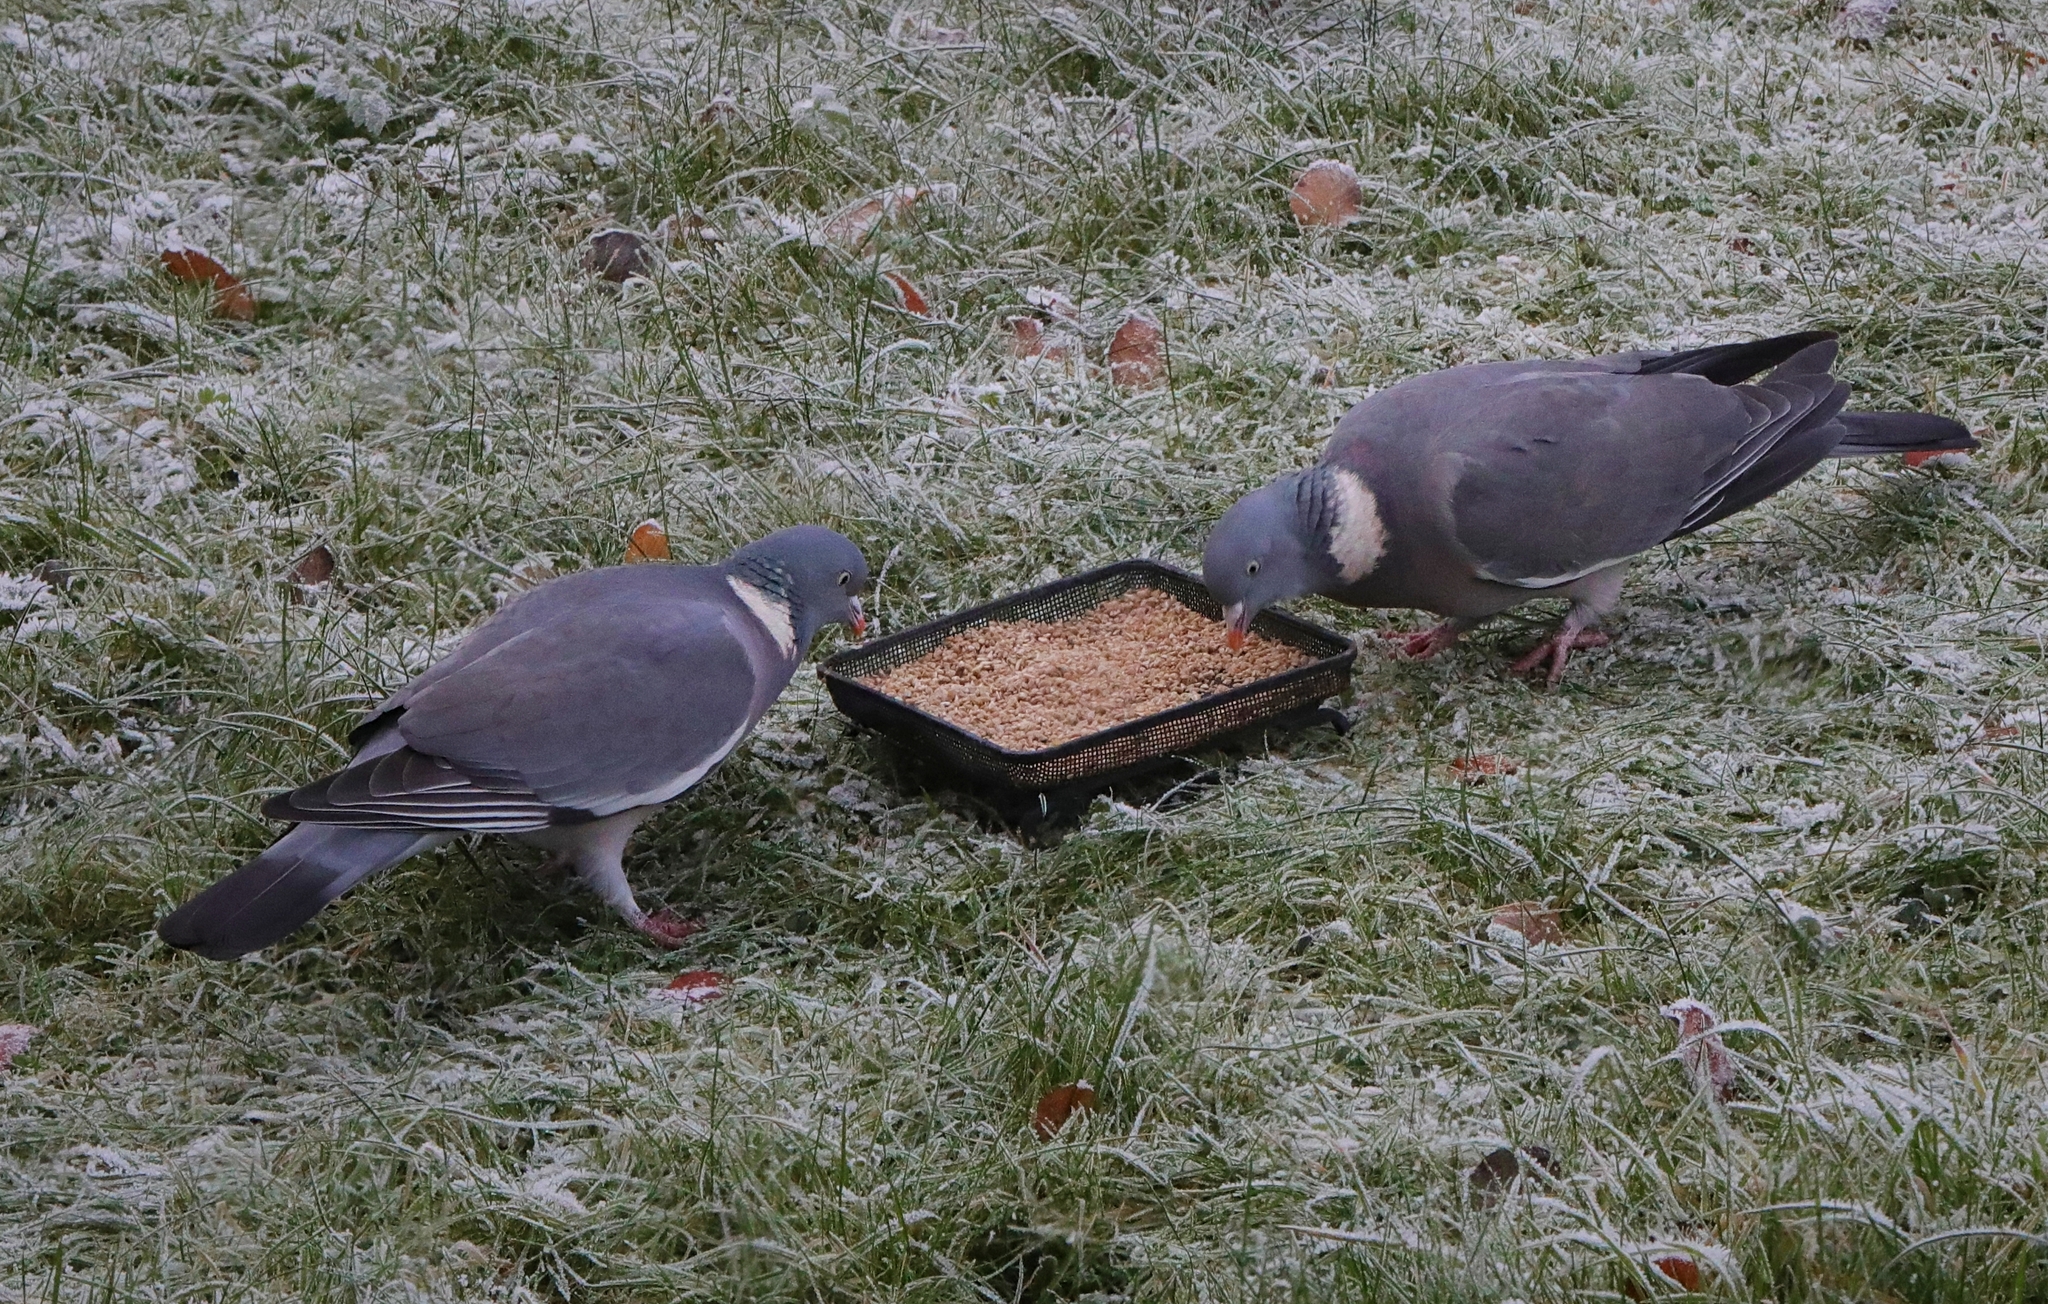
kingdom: Animalia
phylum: Chordata
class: Aves
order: Columbiformes
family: Columbidae
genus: Columba
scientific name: Columba palumbus
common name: Common wood pigeon
